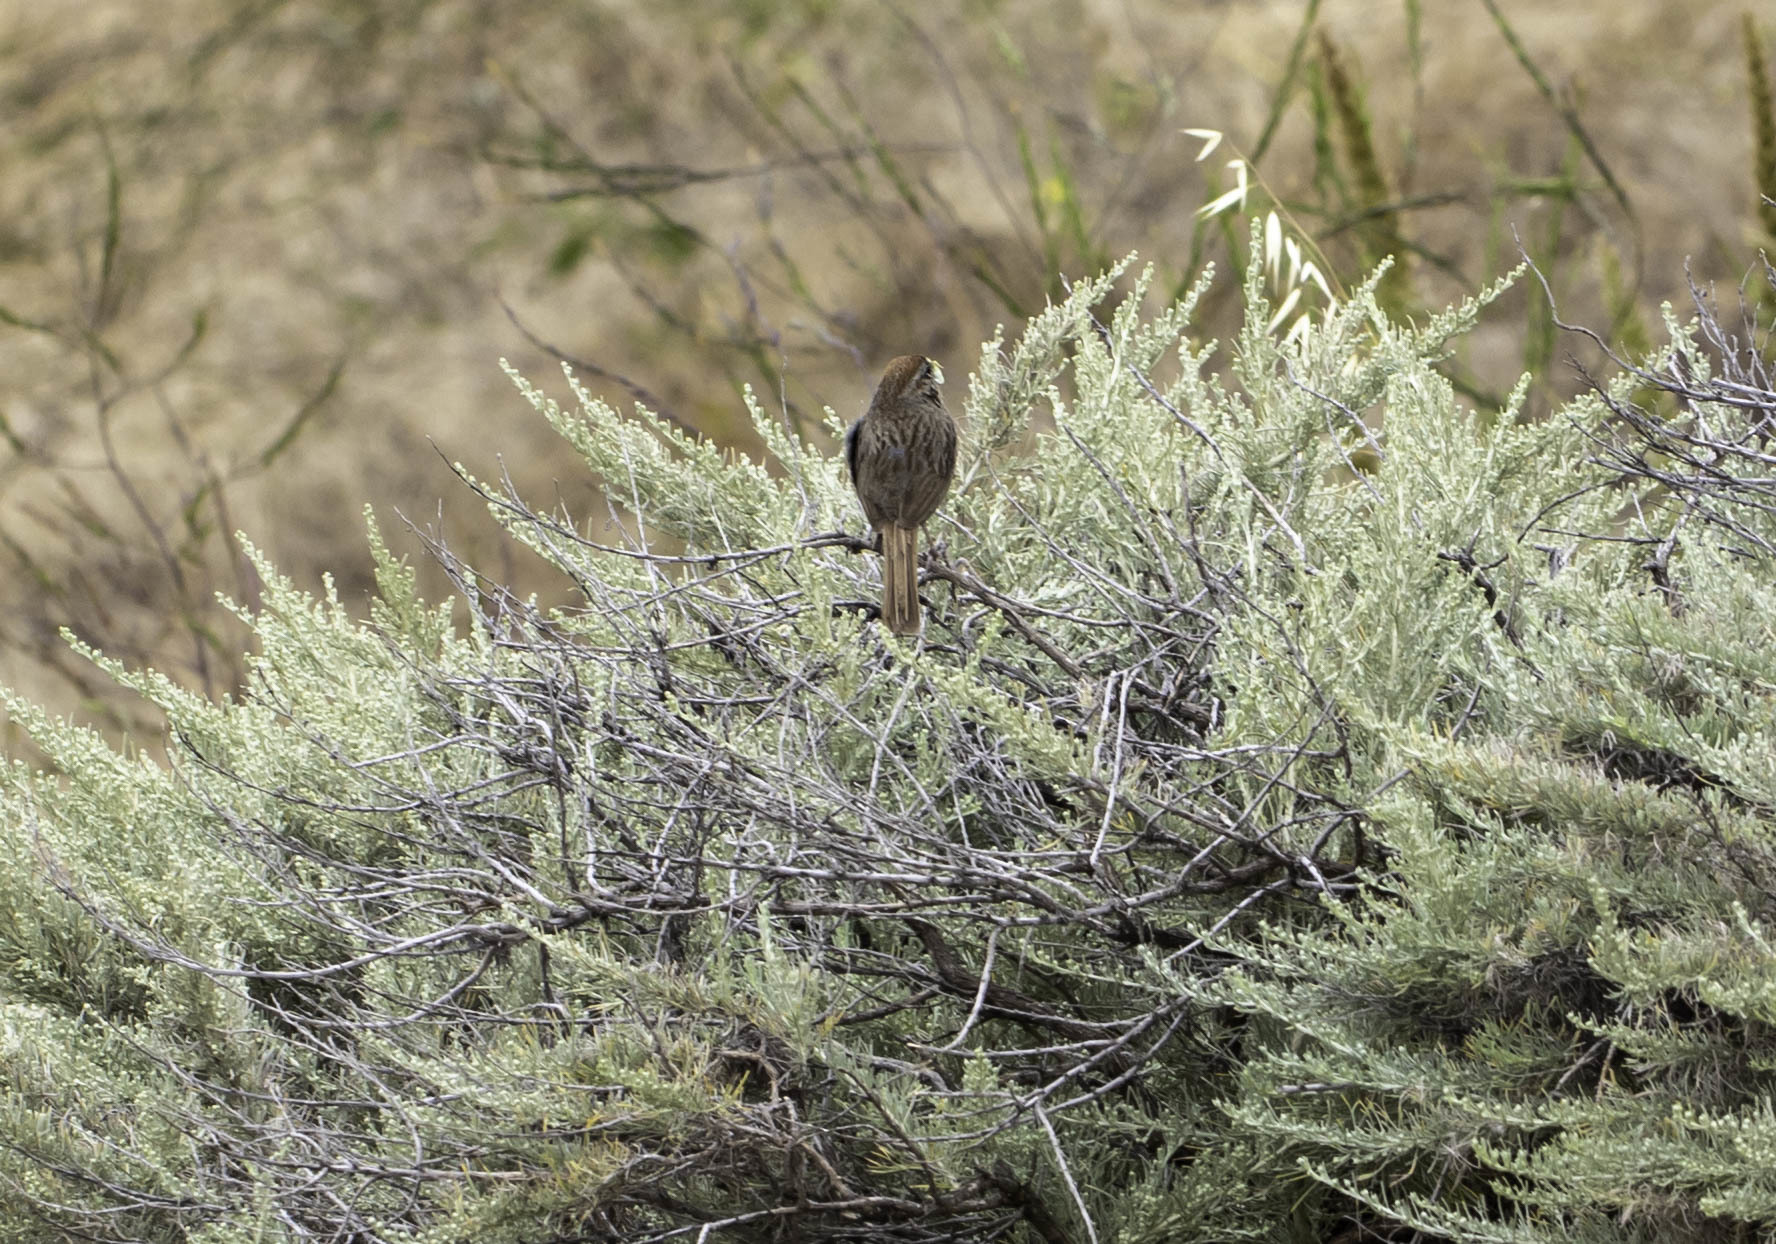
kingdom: Animalia
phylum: Chordata
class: Aves
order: Passeriformes
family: Passerellidae
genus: Aimophila
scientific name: Aimophila ruficeps
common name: Rufous-crowned sparrow
